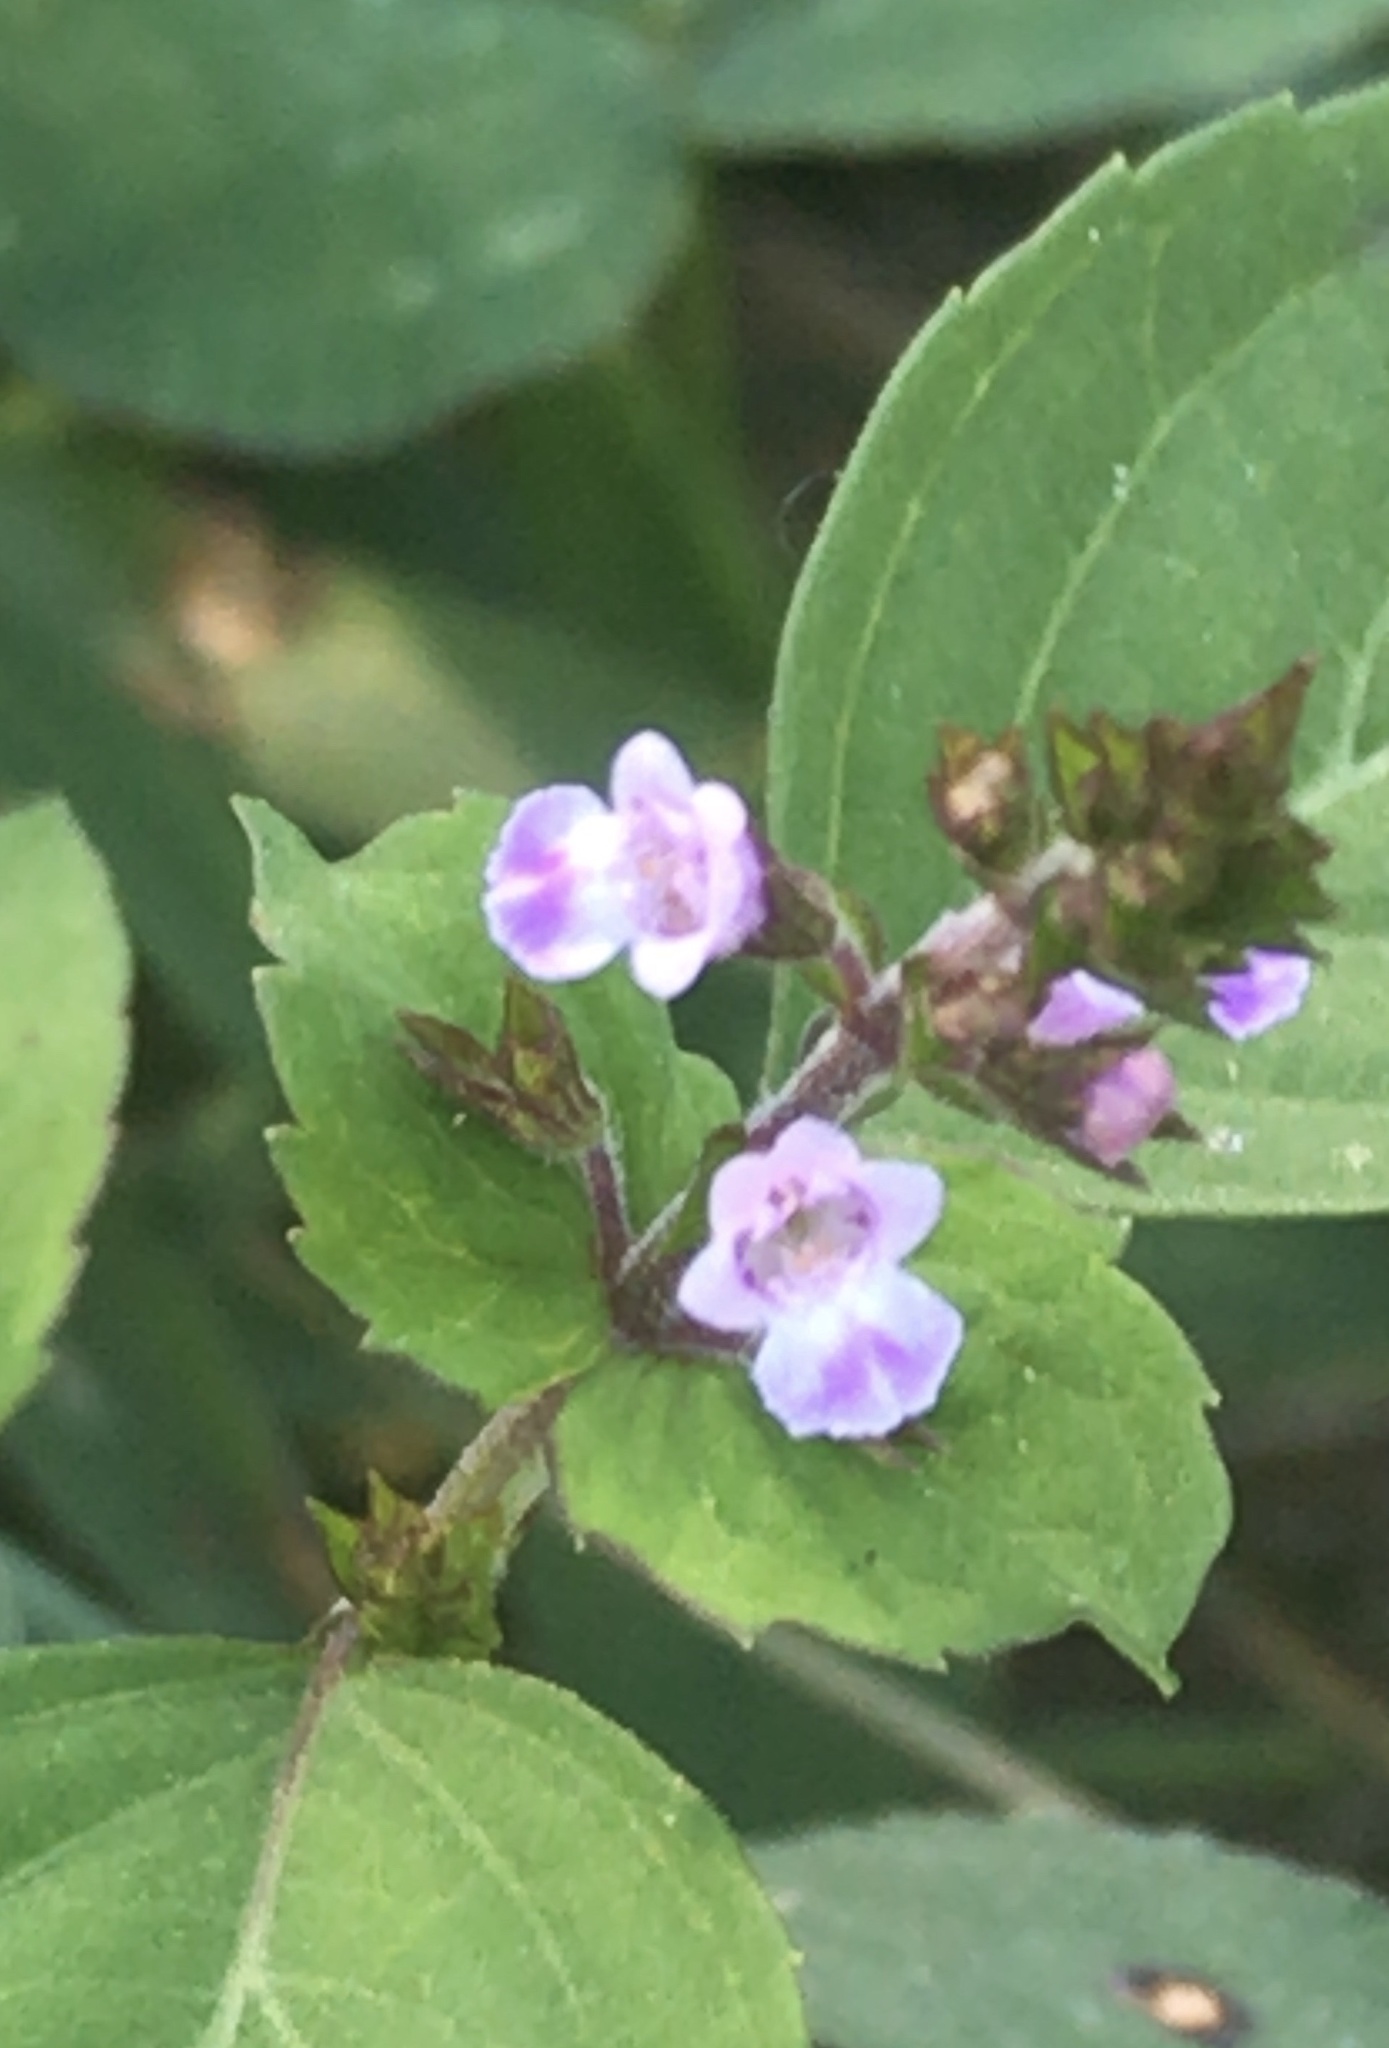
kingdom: Plantae
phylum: Tracheophyta
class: Magnoliopsida
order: Lamiales
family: Lamiaceae
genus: Mosla
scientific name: Mosla dianthera
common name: Miniature beefsteakplant
